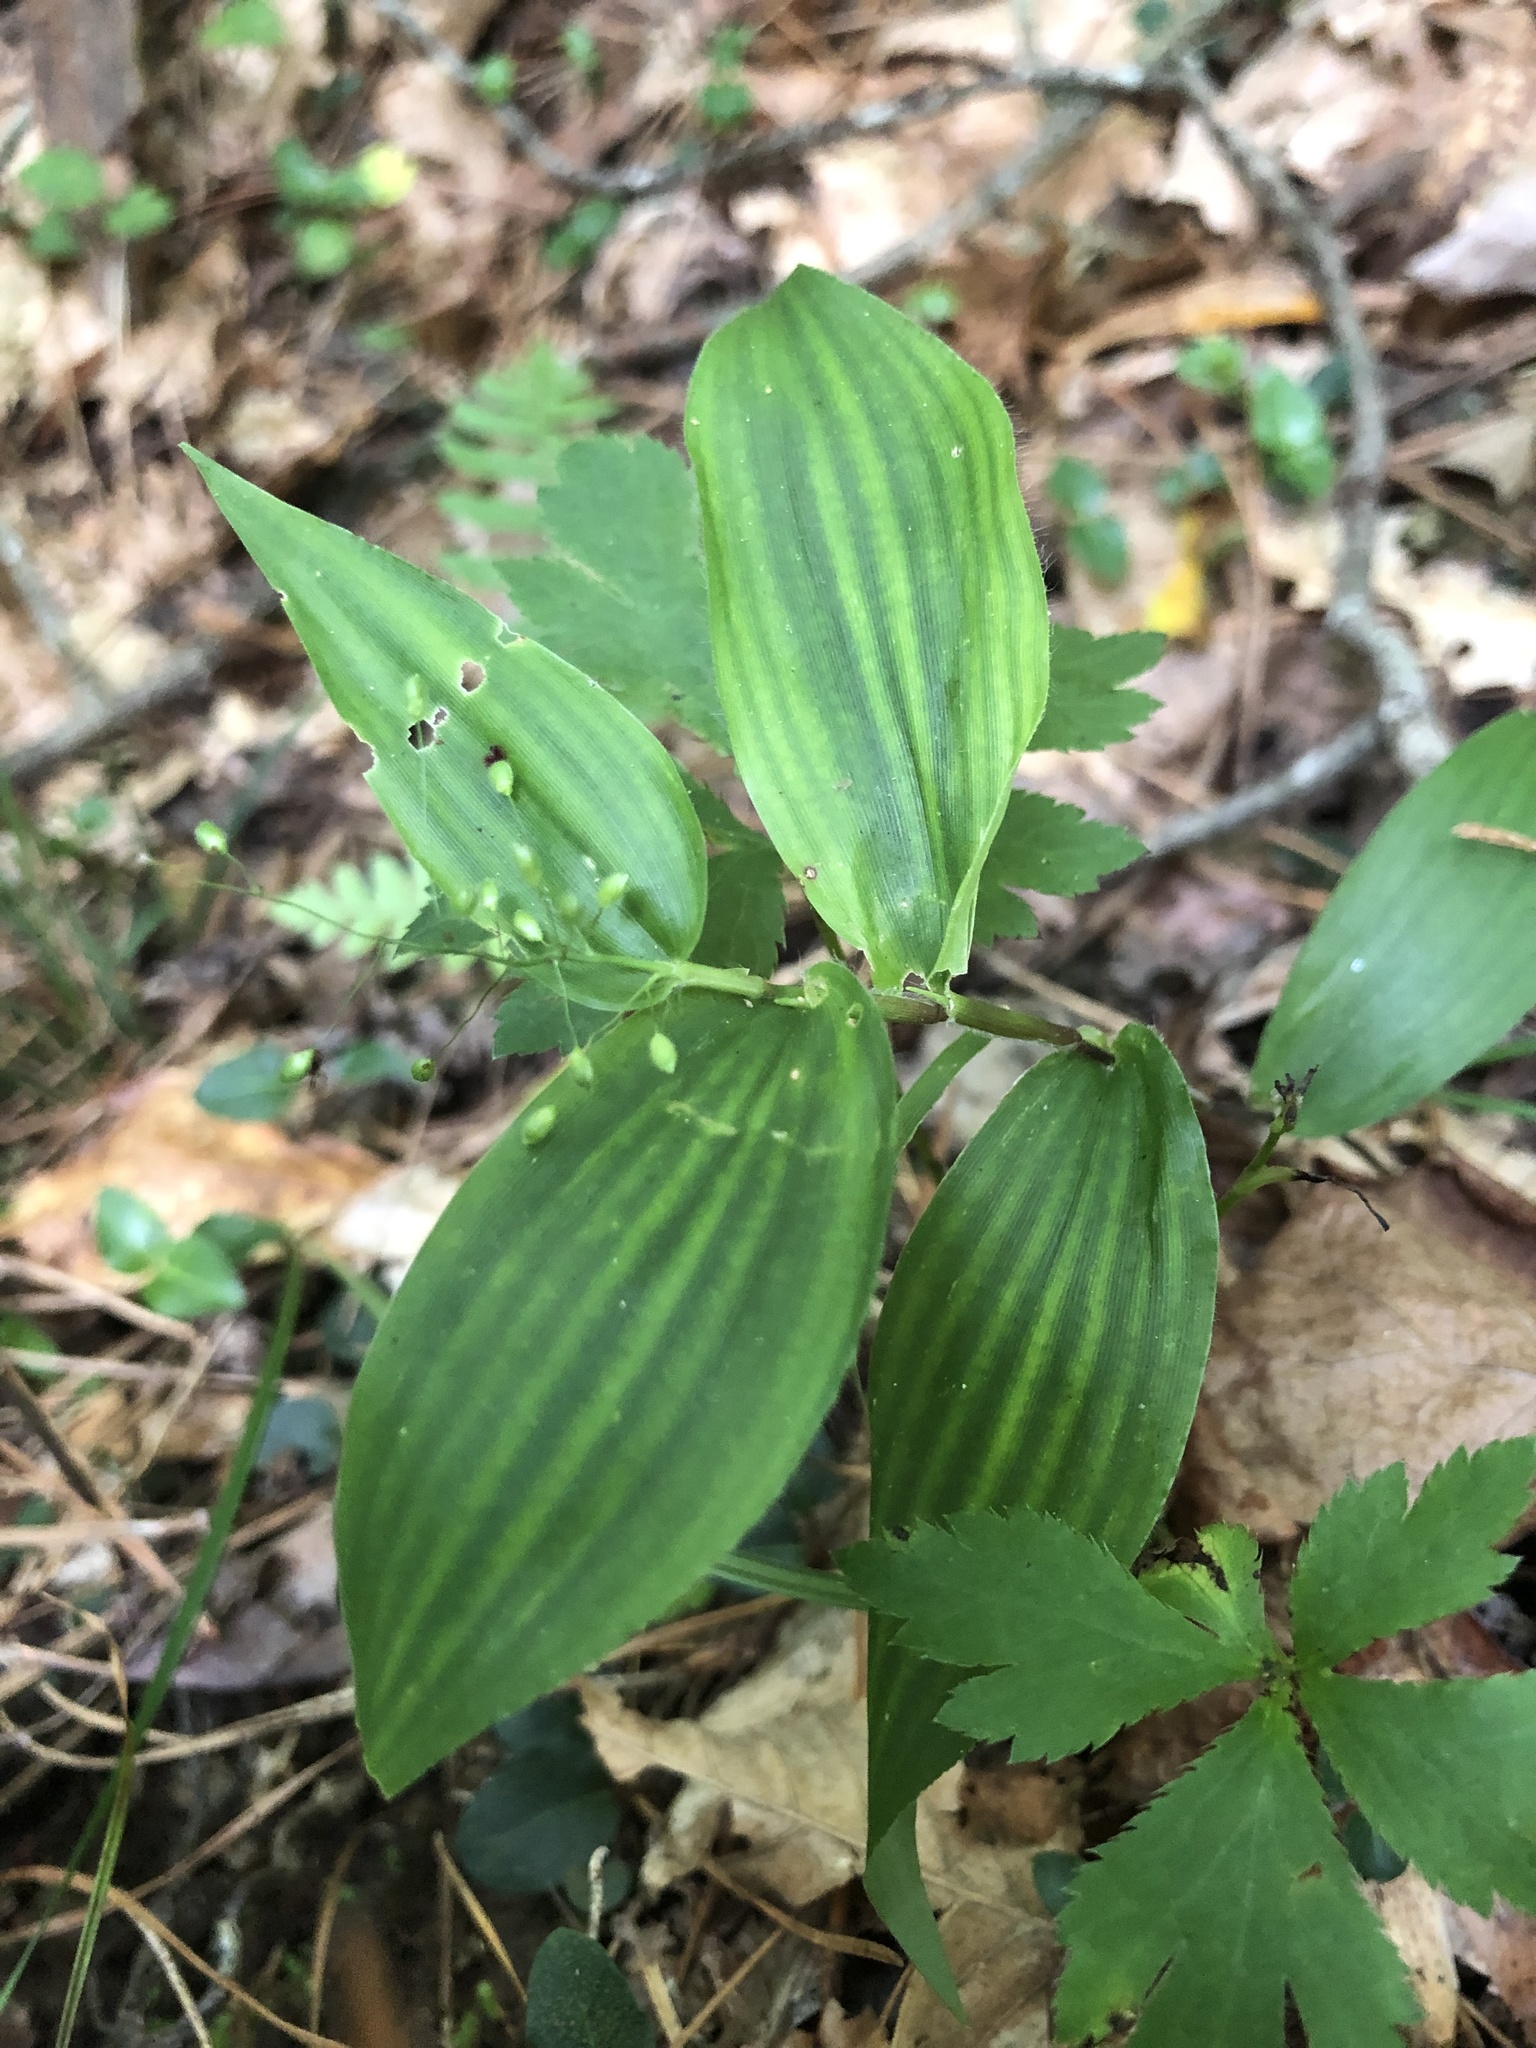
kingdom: Plantae
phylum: Tracheophyta
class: Liliopsida
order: Poales
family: Poaceae
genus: Dichanthelium
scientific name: Dichanthelium commutatum
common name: Variable witchgrass
